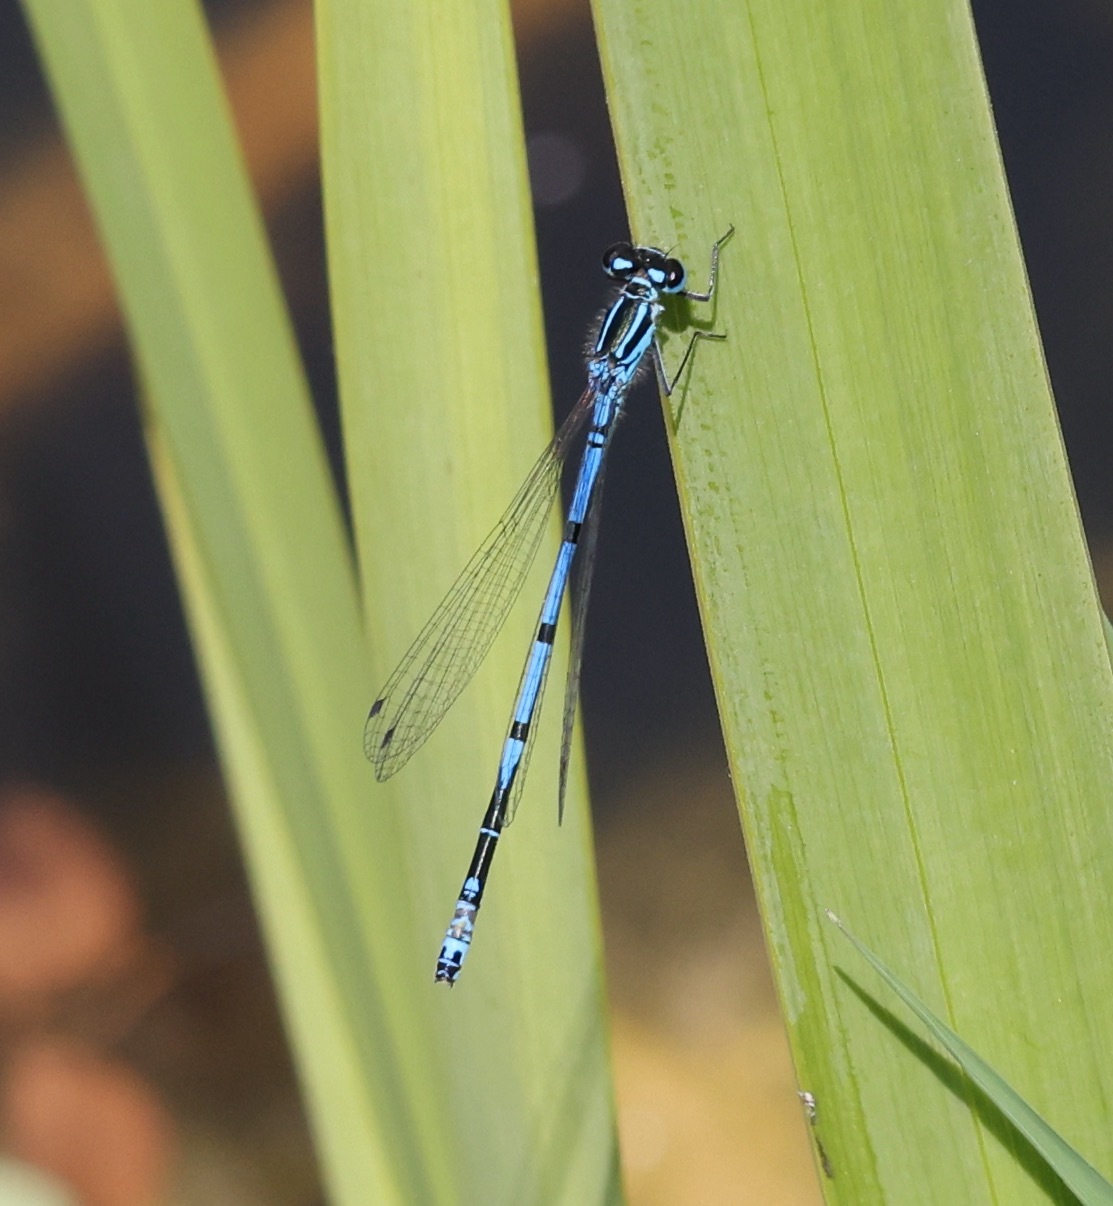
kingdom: Animalia
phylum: Arthropoda
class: Insecta
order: Odonata
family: Coenagrionidae
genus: Coenagrion
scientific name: Coenagrion puella
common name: Azure damselfly
